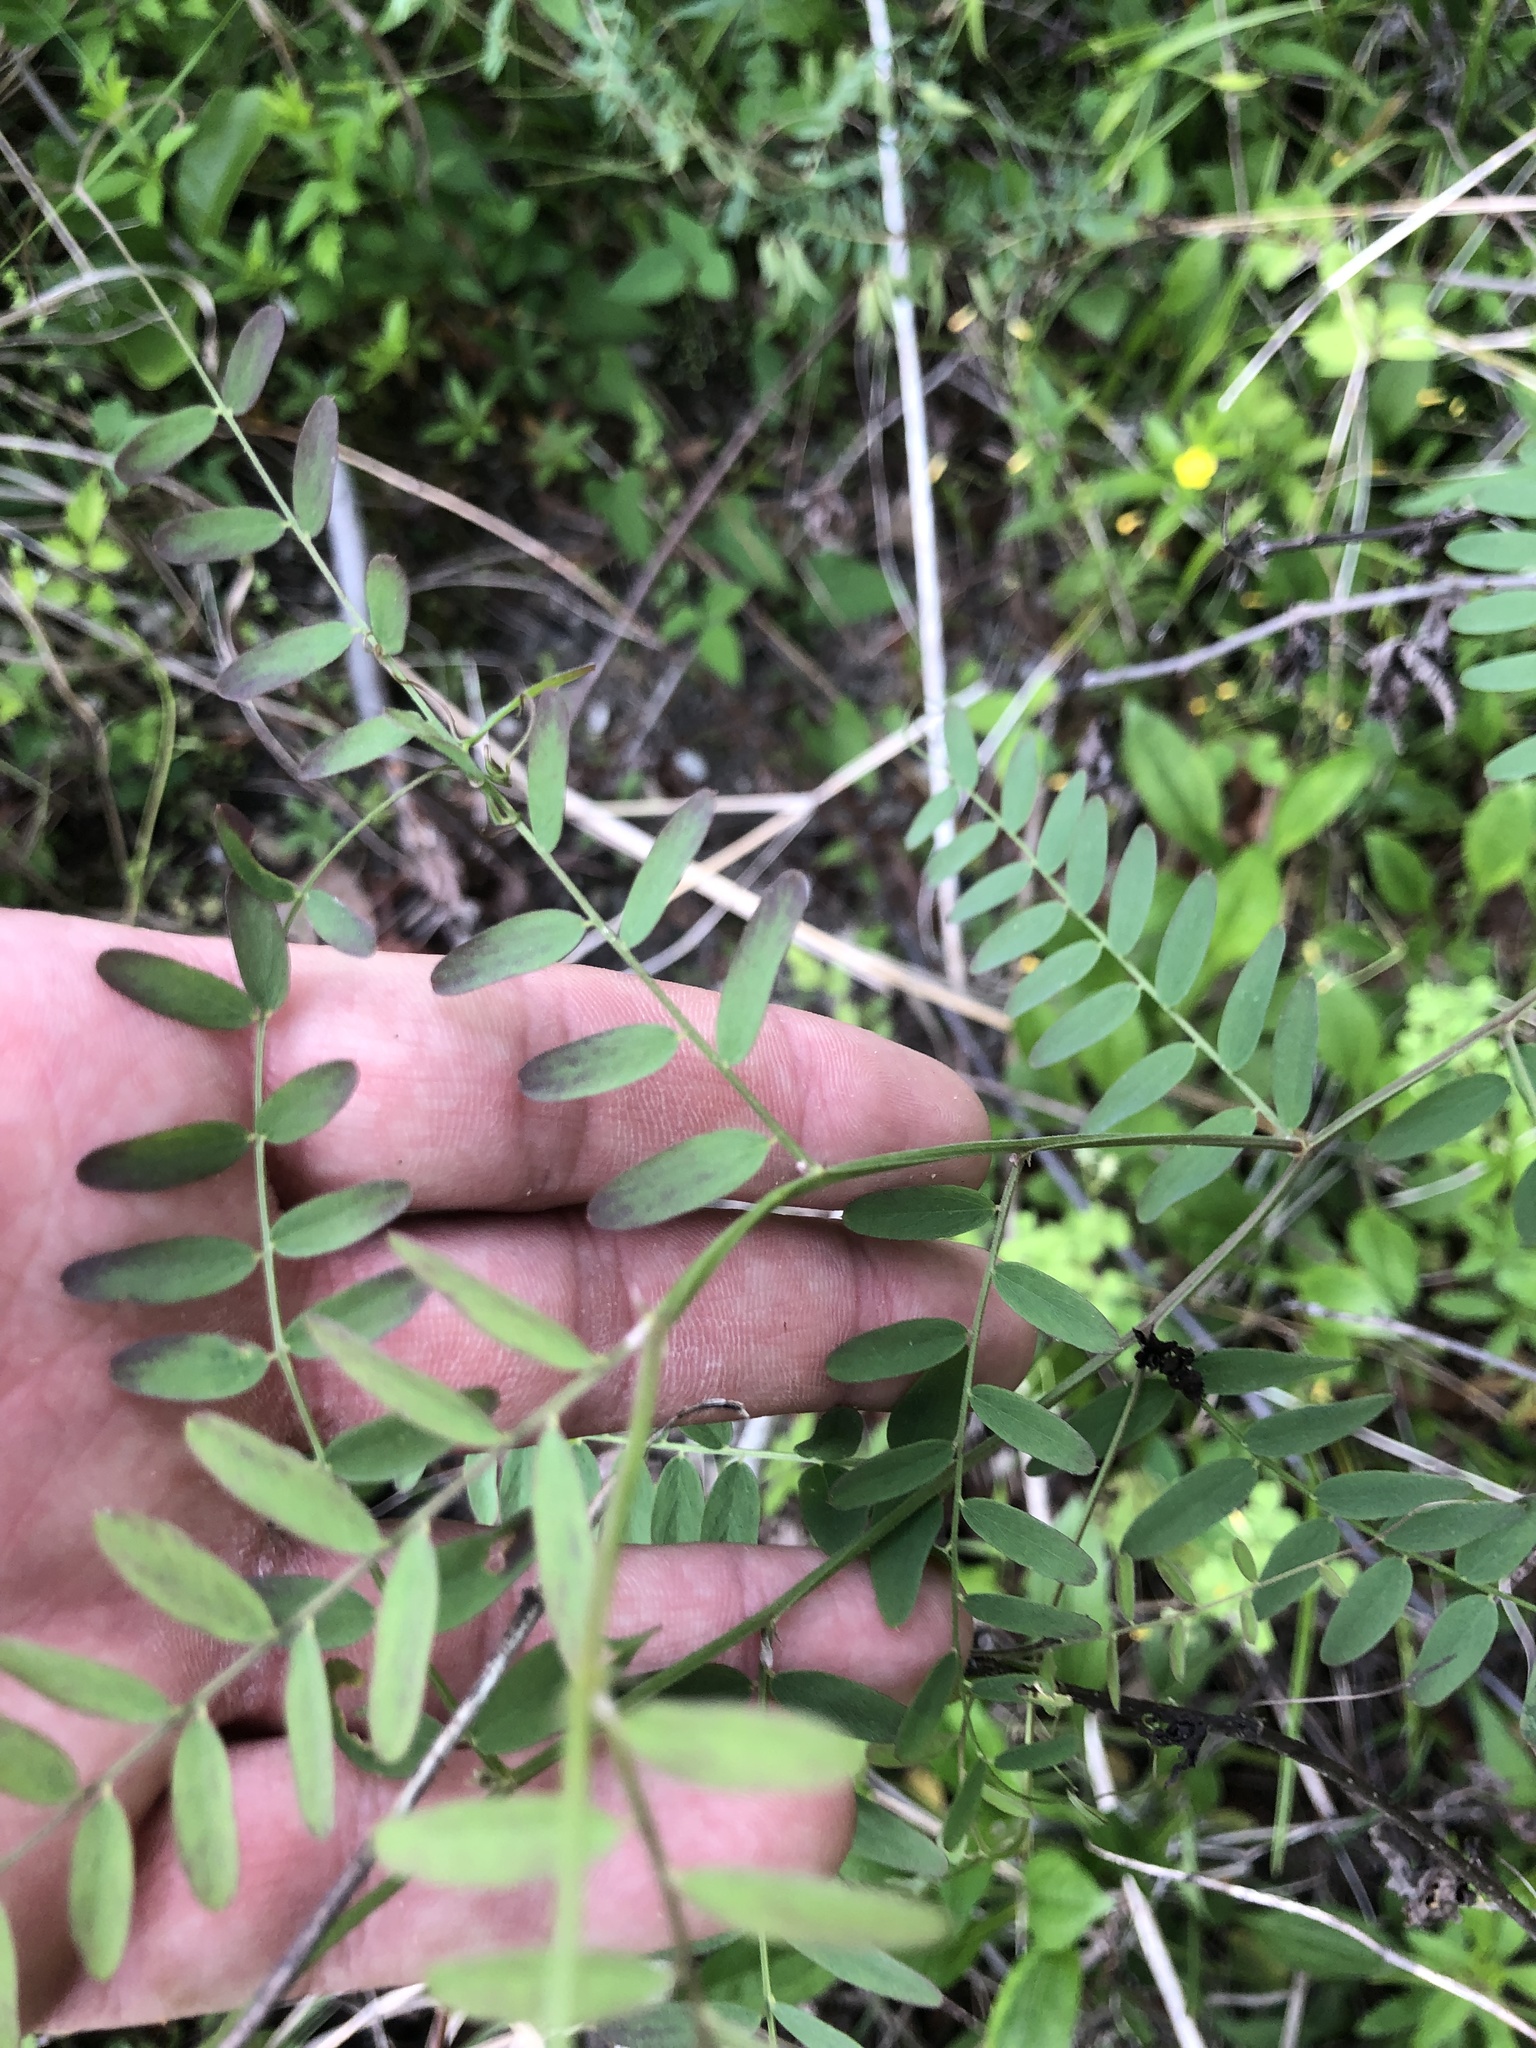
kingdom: Plantae
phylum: Tracheophyta
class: Magnoliopsida
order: Fabales
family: Fabaceae
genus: Vicia
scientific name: Vicia caroliniana
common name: Carolina vetch
